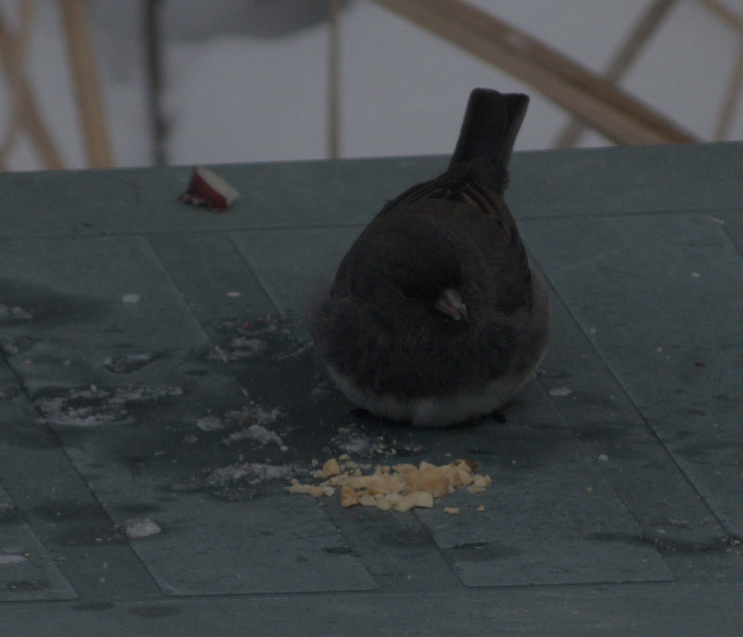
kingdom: Animalia
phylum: Chordata
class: Aves
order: Passeriformes
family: Passerellidae
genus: Junco
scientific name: Junco hyemalis
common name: Dark-eyed junco
